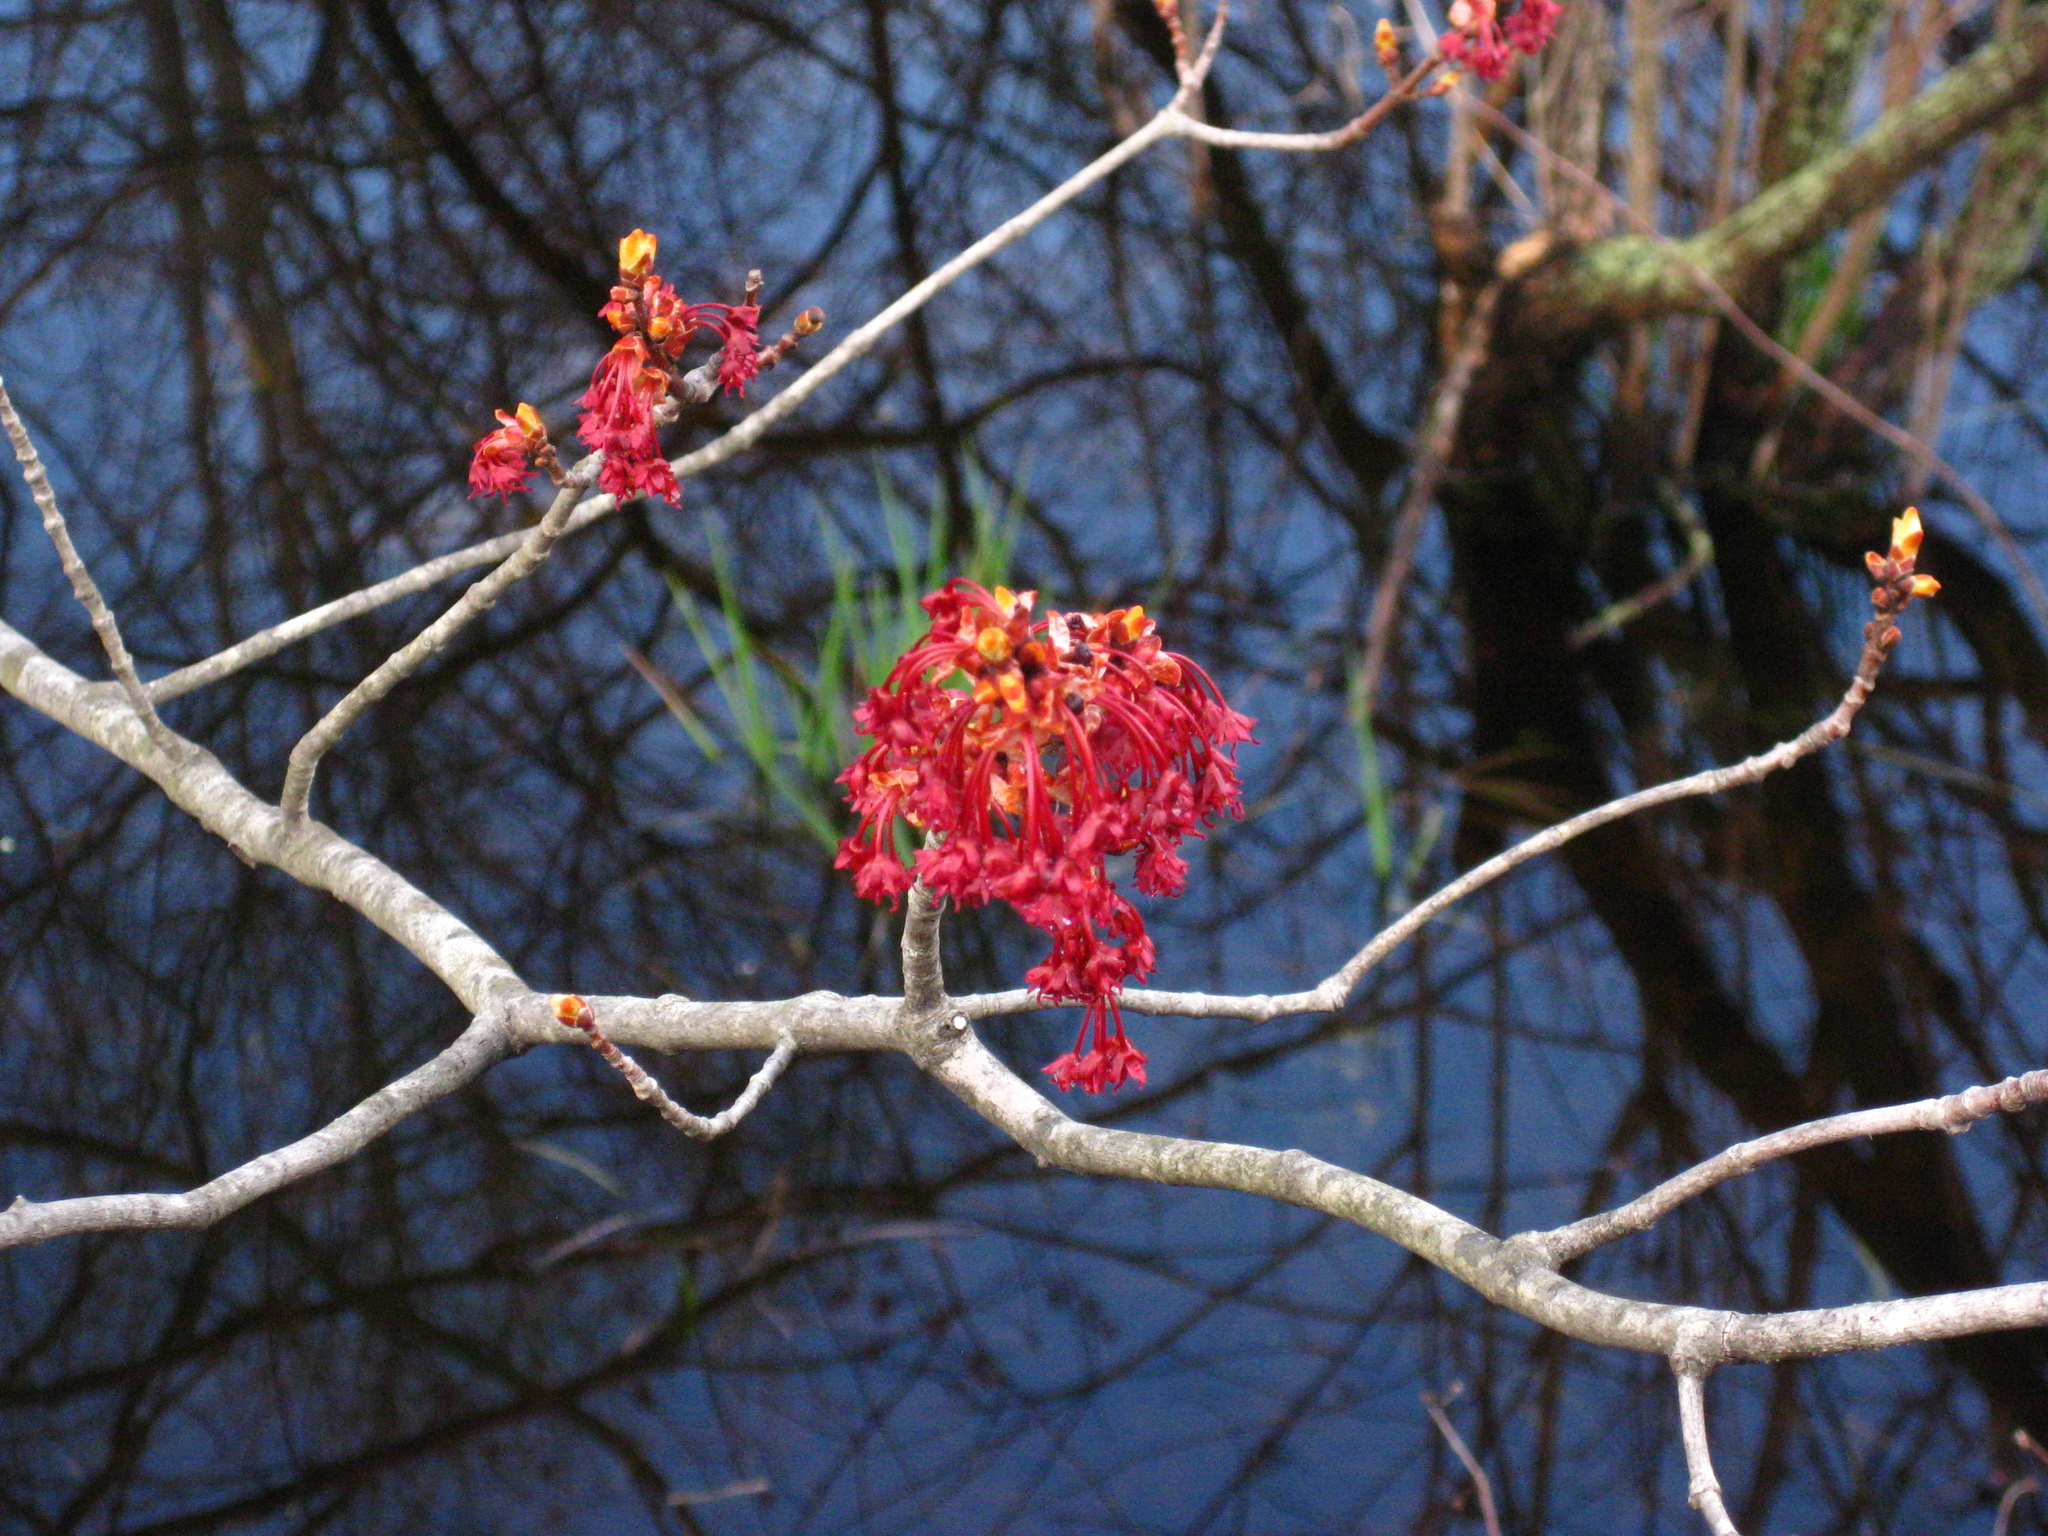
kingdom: Plantae
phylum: Tracheophyta
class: Magnoliopsida
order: Sapindales
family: Sapindaceae
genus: Acer
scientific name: Acer rubrum
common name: Red maple
